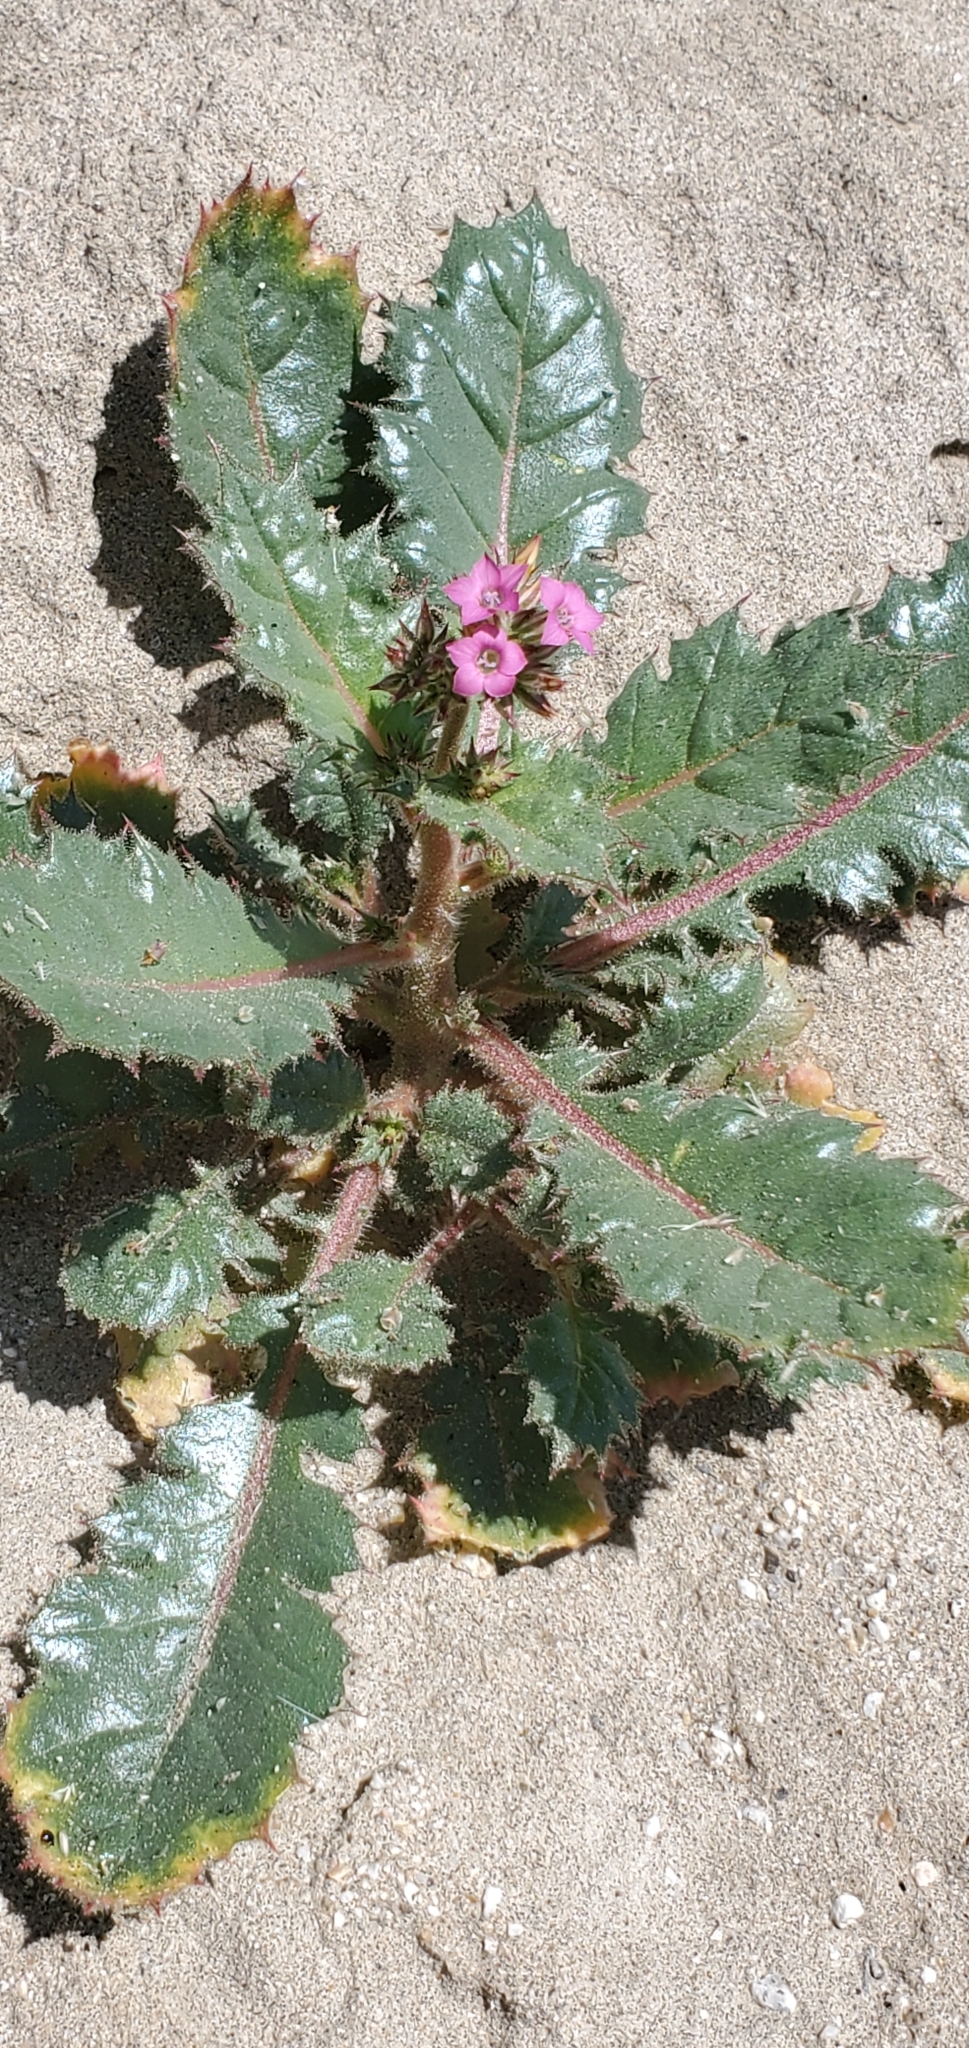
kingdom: Plantae
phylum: Tracheophyta
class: Magnoliopsida
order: Ericales
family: Polemoniaceae
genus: Aliciella
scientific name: Aliciella latifolia
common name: Broad-leaf gilia
